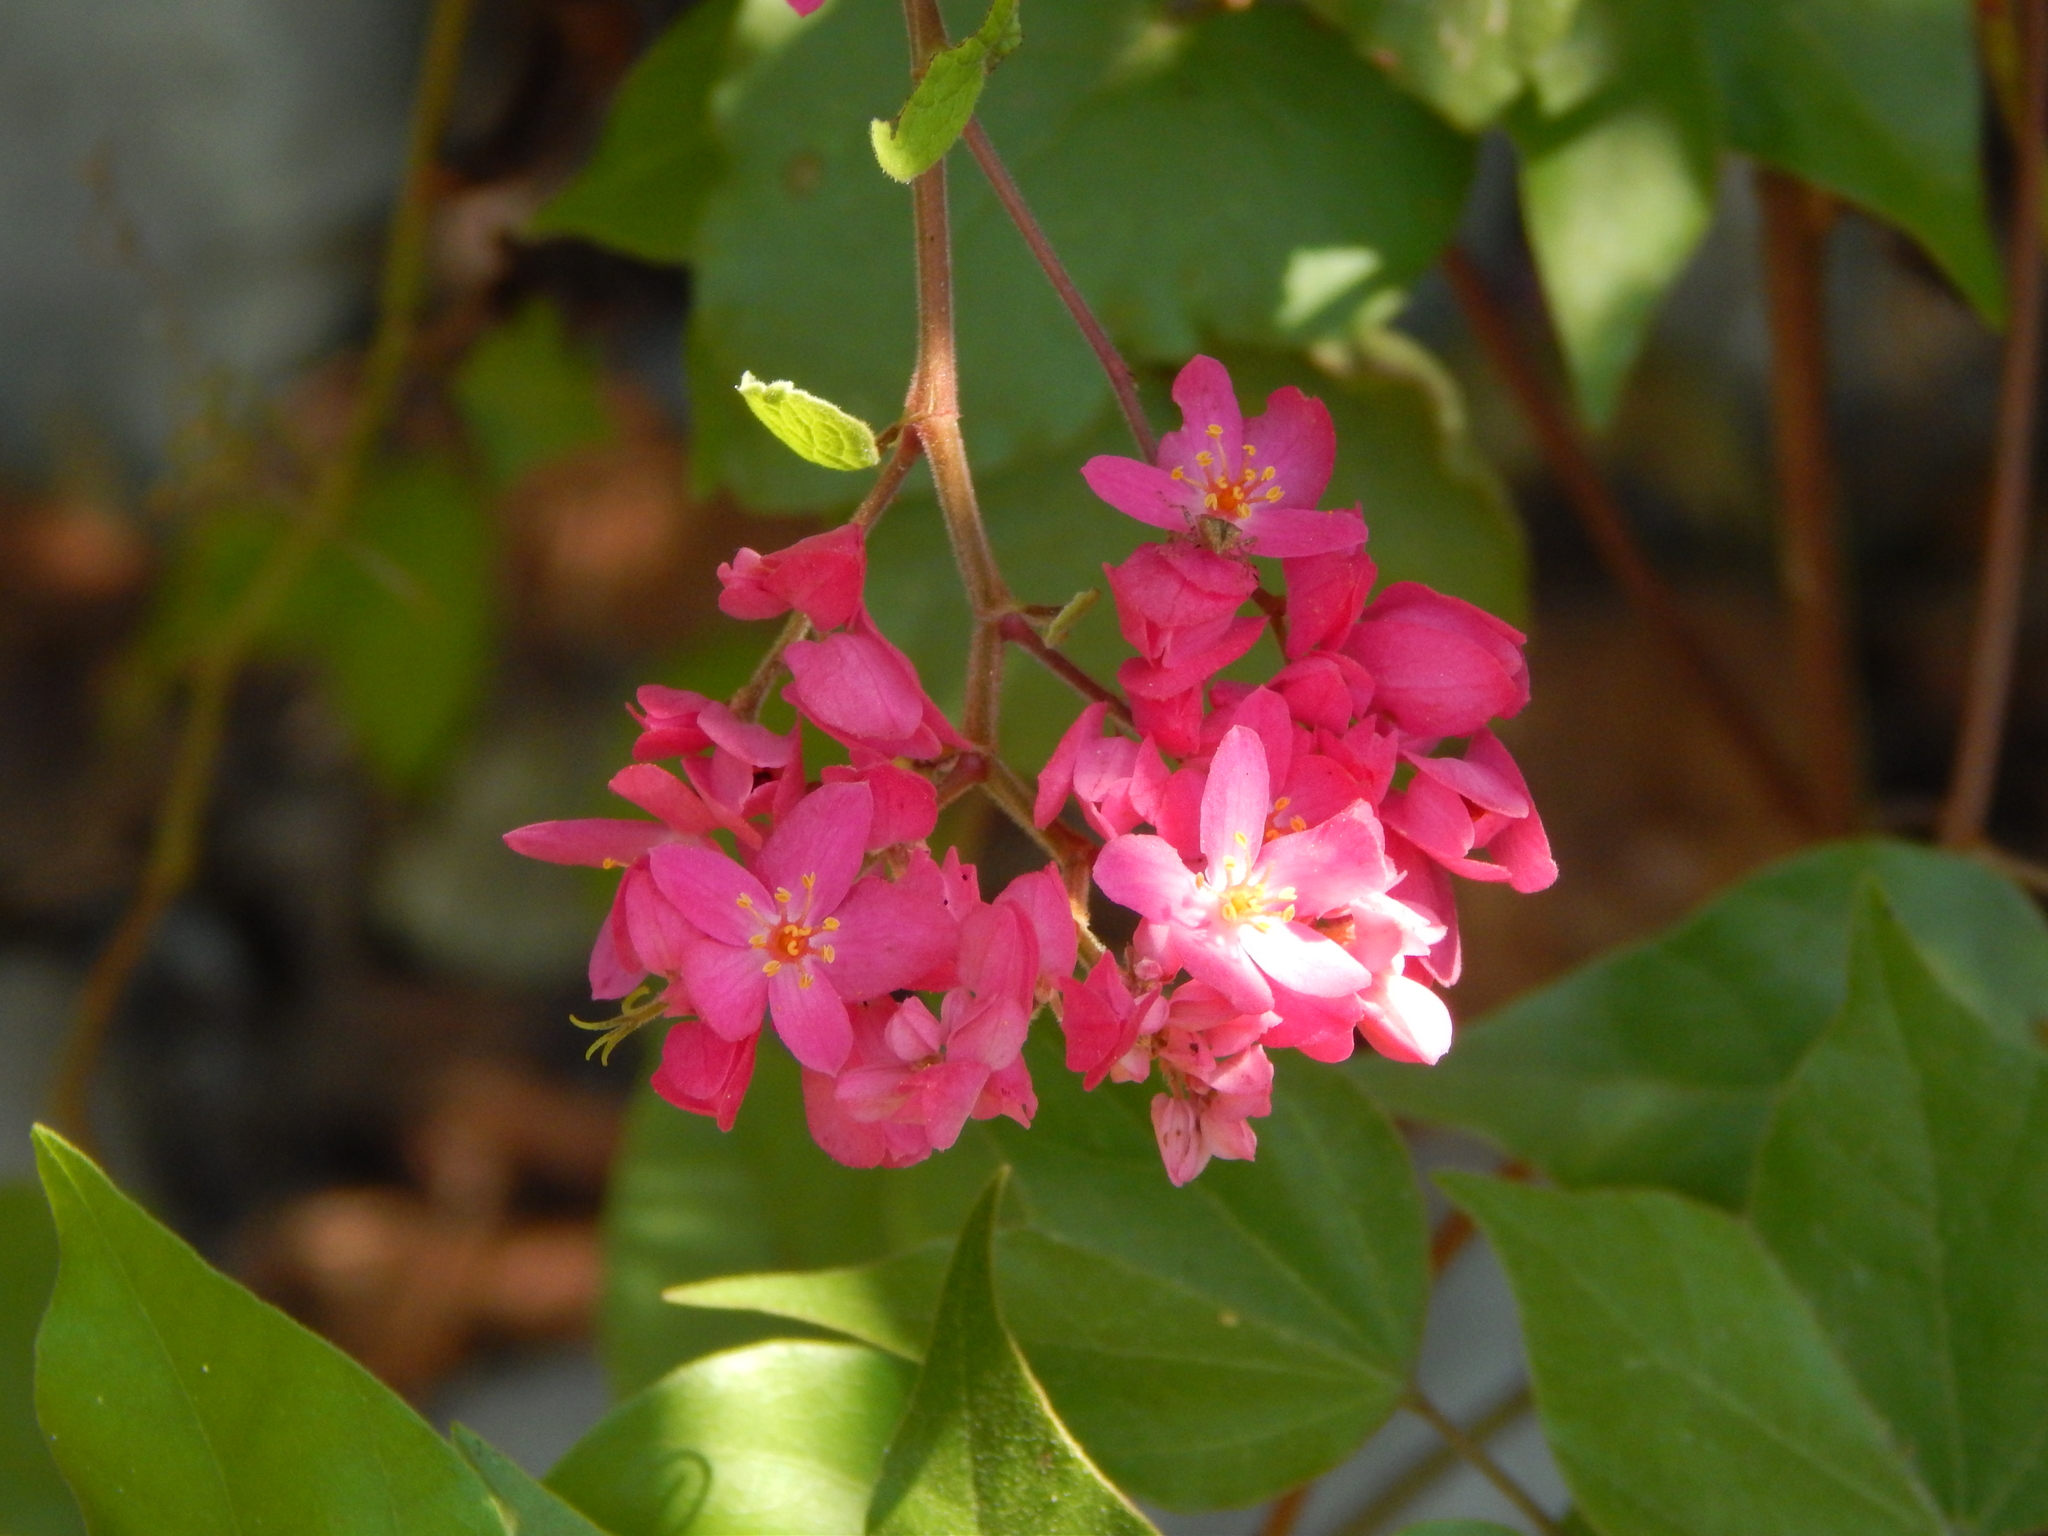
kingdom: Plantae
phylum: Tracheophyta
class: Magnoliopsida
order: Caryophyllales
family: Polygonaceae
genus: Antigonon
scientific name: Antigonon leptopus
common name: Coral vine
